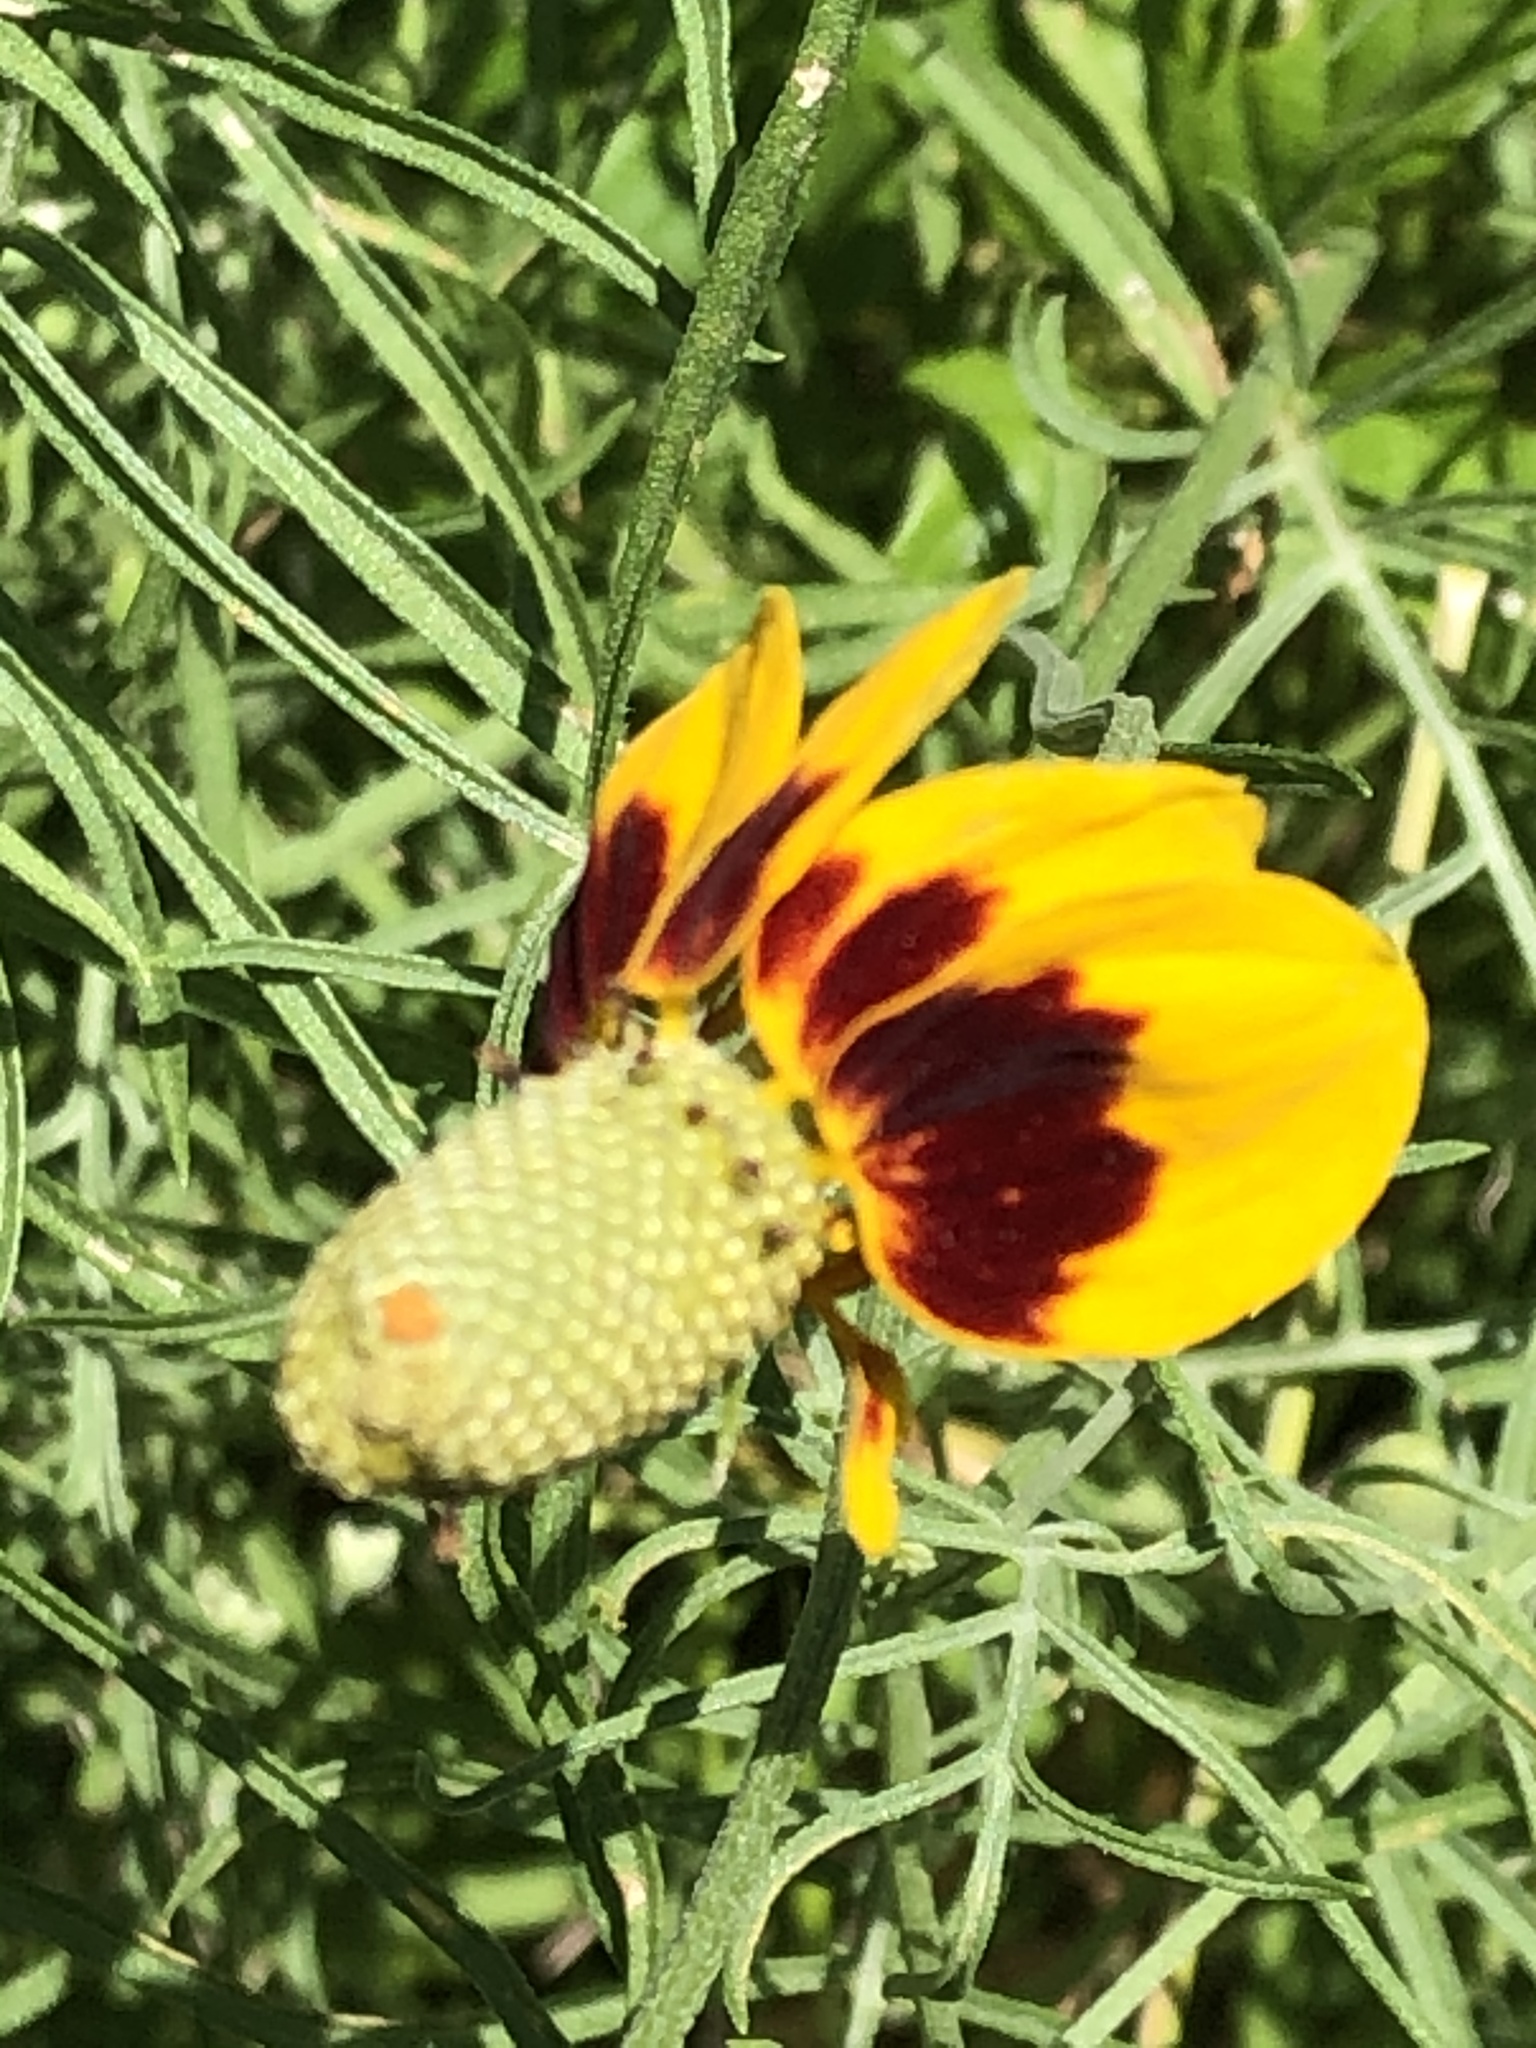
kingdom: Plantae
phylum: Tracheophyta
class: Magnoliopsida
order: Asterales
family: Asteraceae
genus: Ratibida
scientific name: Ratibida columnifera
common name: Prairie coneflower
